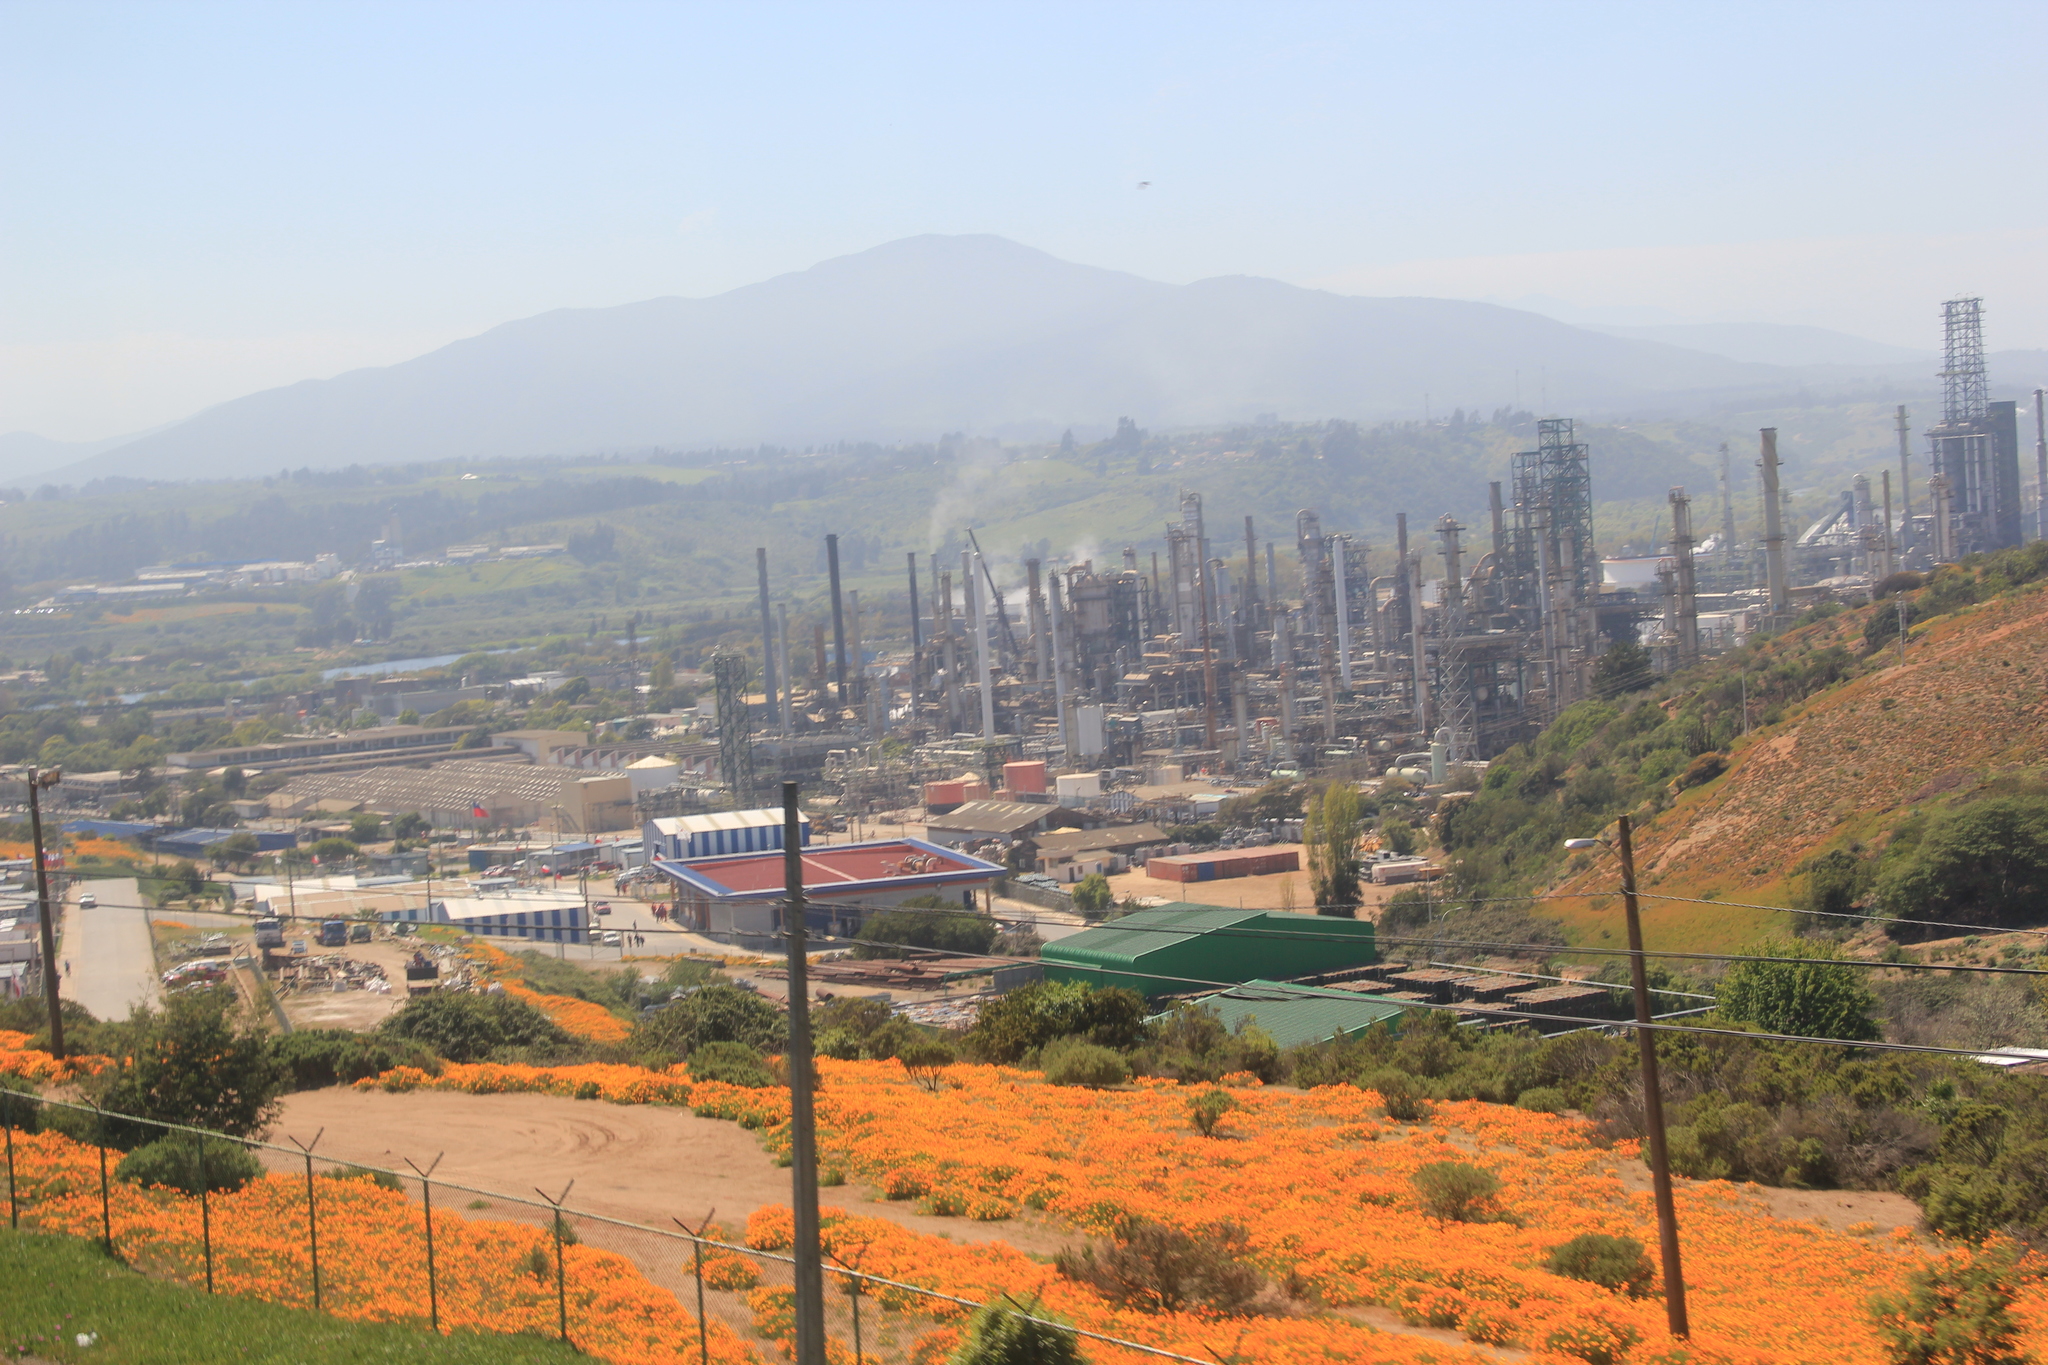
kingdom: Plantae
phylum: Tracheophyta
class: Magnoliopsida
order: Ranunculales
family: Papaveraceae
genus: Eschscholzia
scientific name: Eschscholzia californica
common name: California poppy
